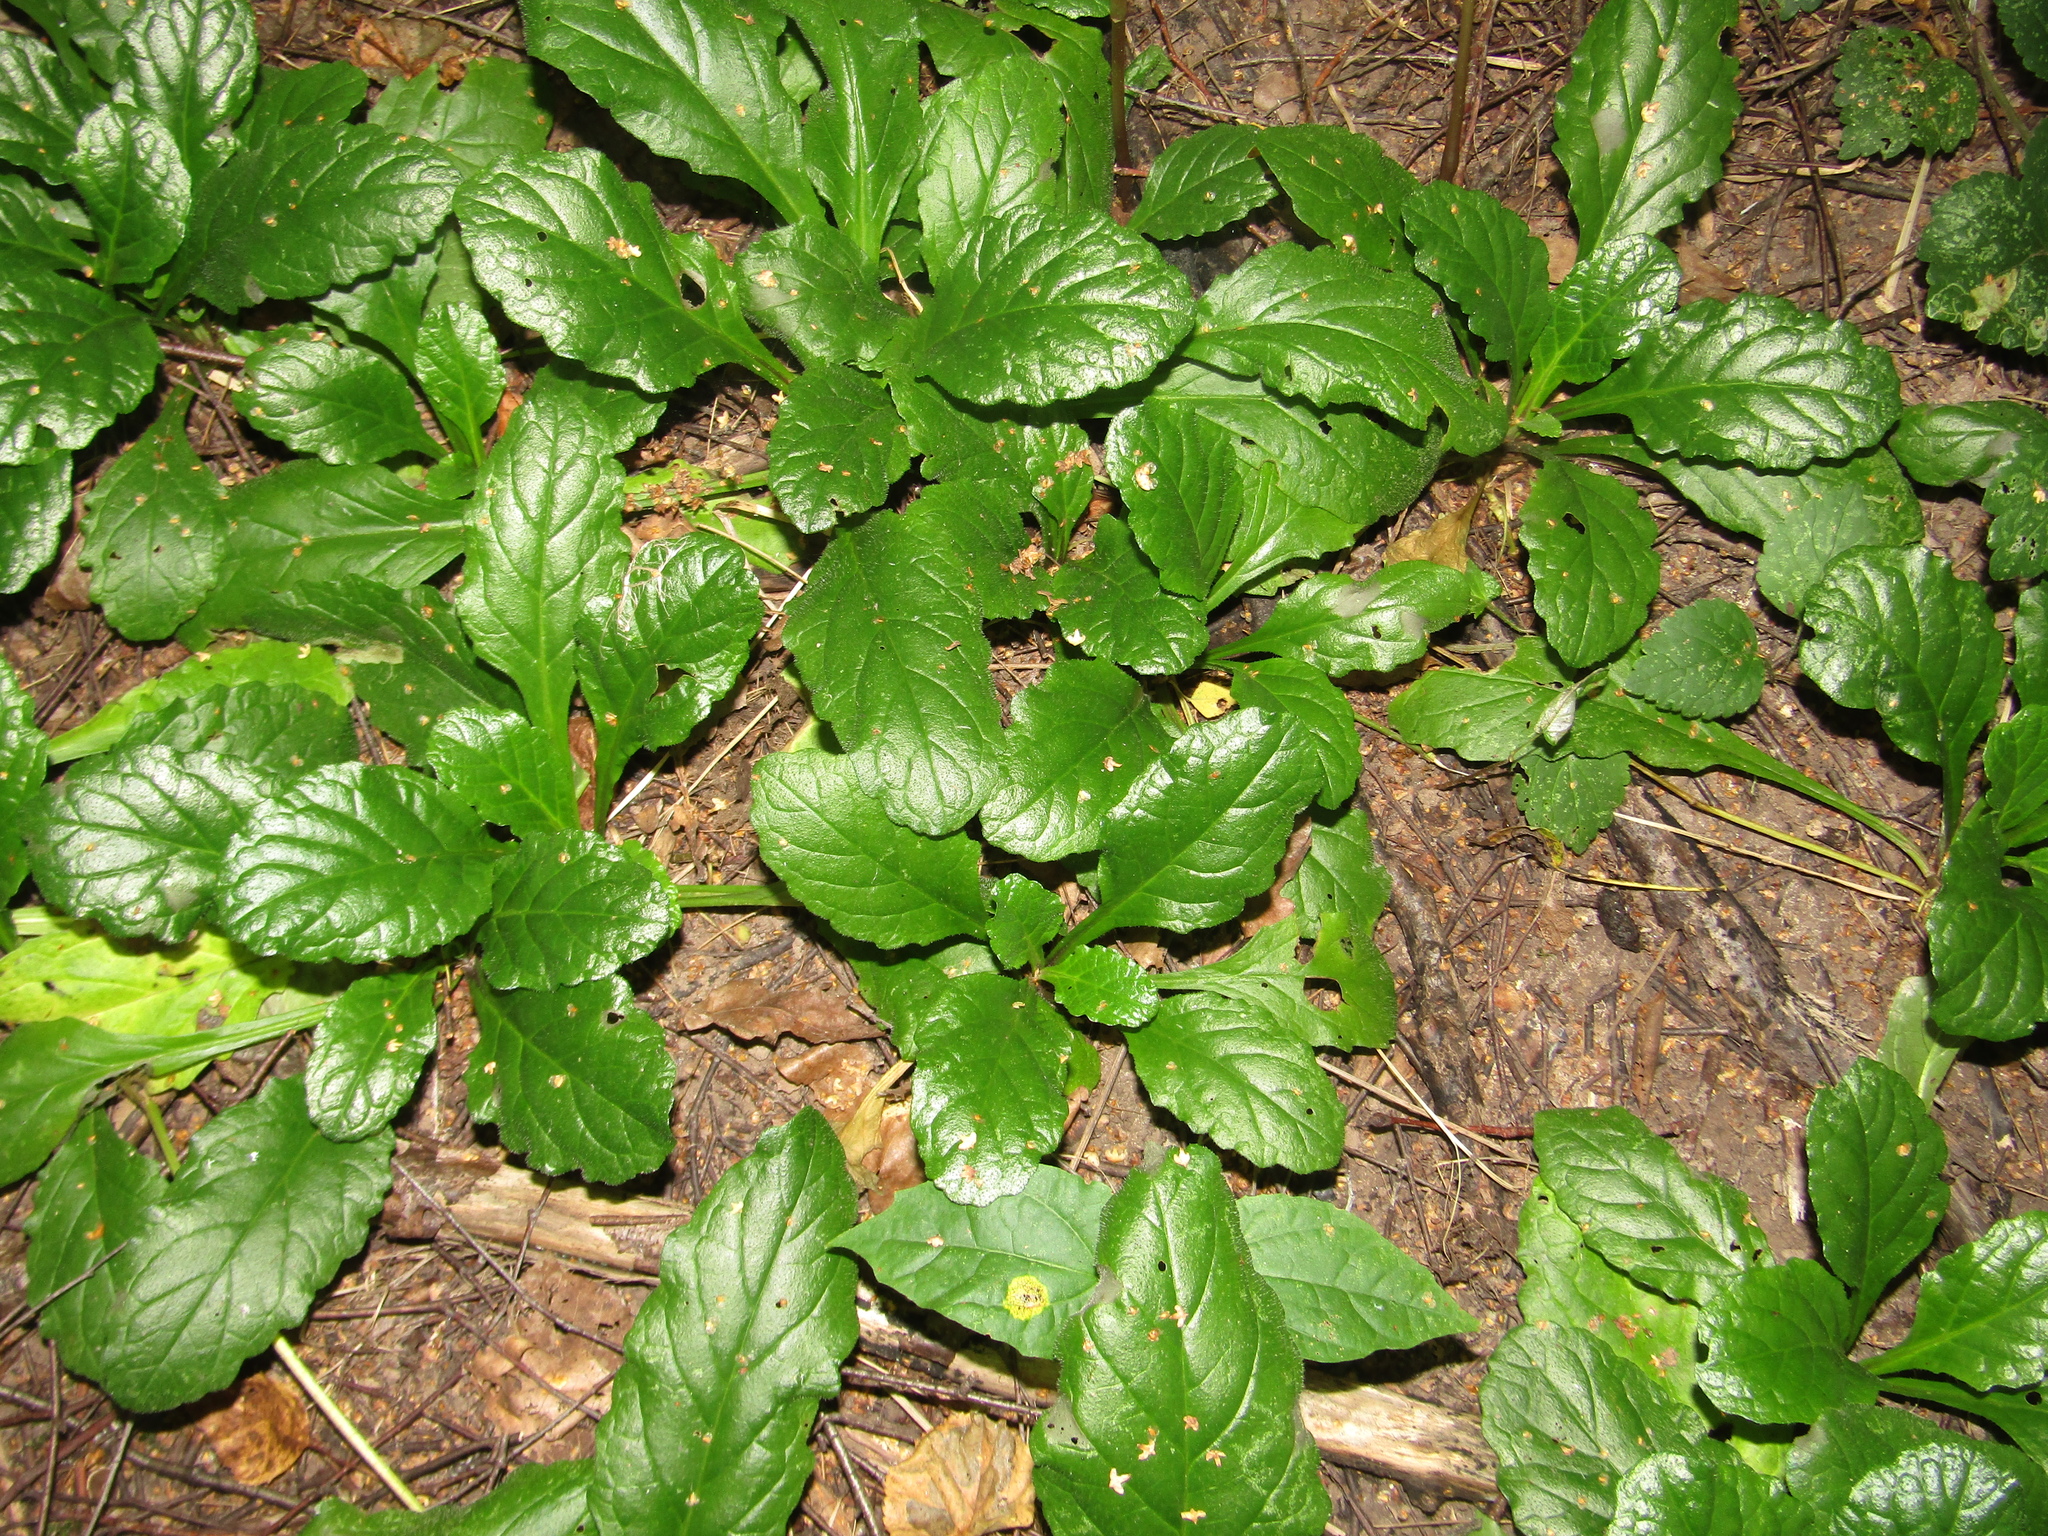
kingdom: Plantae
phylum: Tracheophyta
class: Magnoliopsida
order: Lamiales
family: Lamiaceae
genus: Ajuga
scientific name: Ajuga reptans
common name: Bugle
